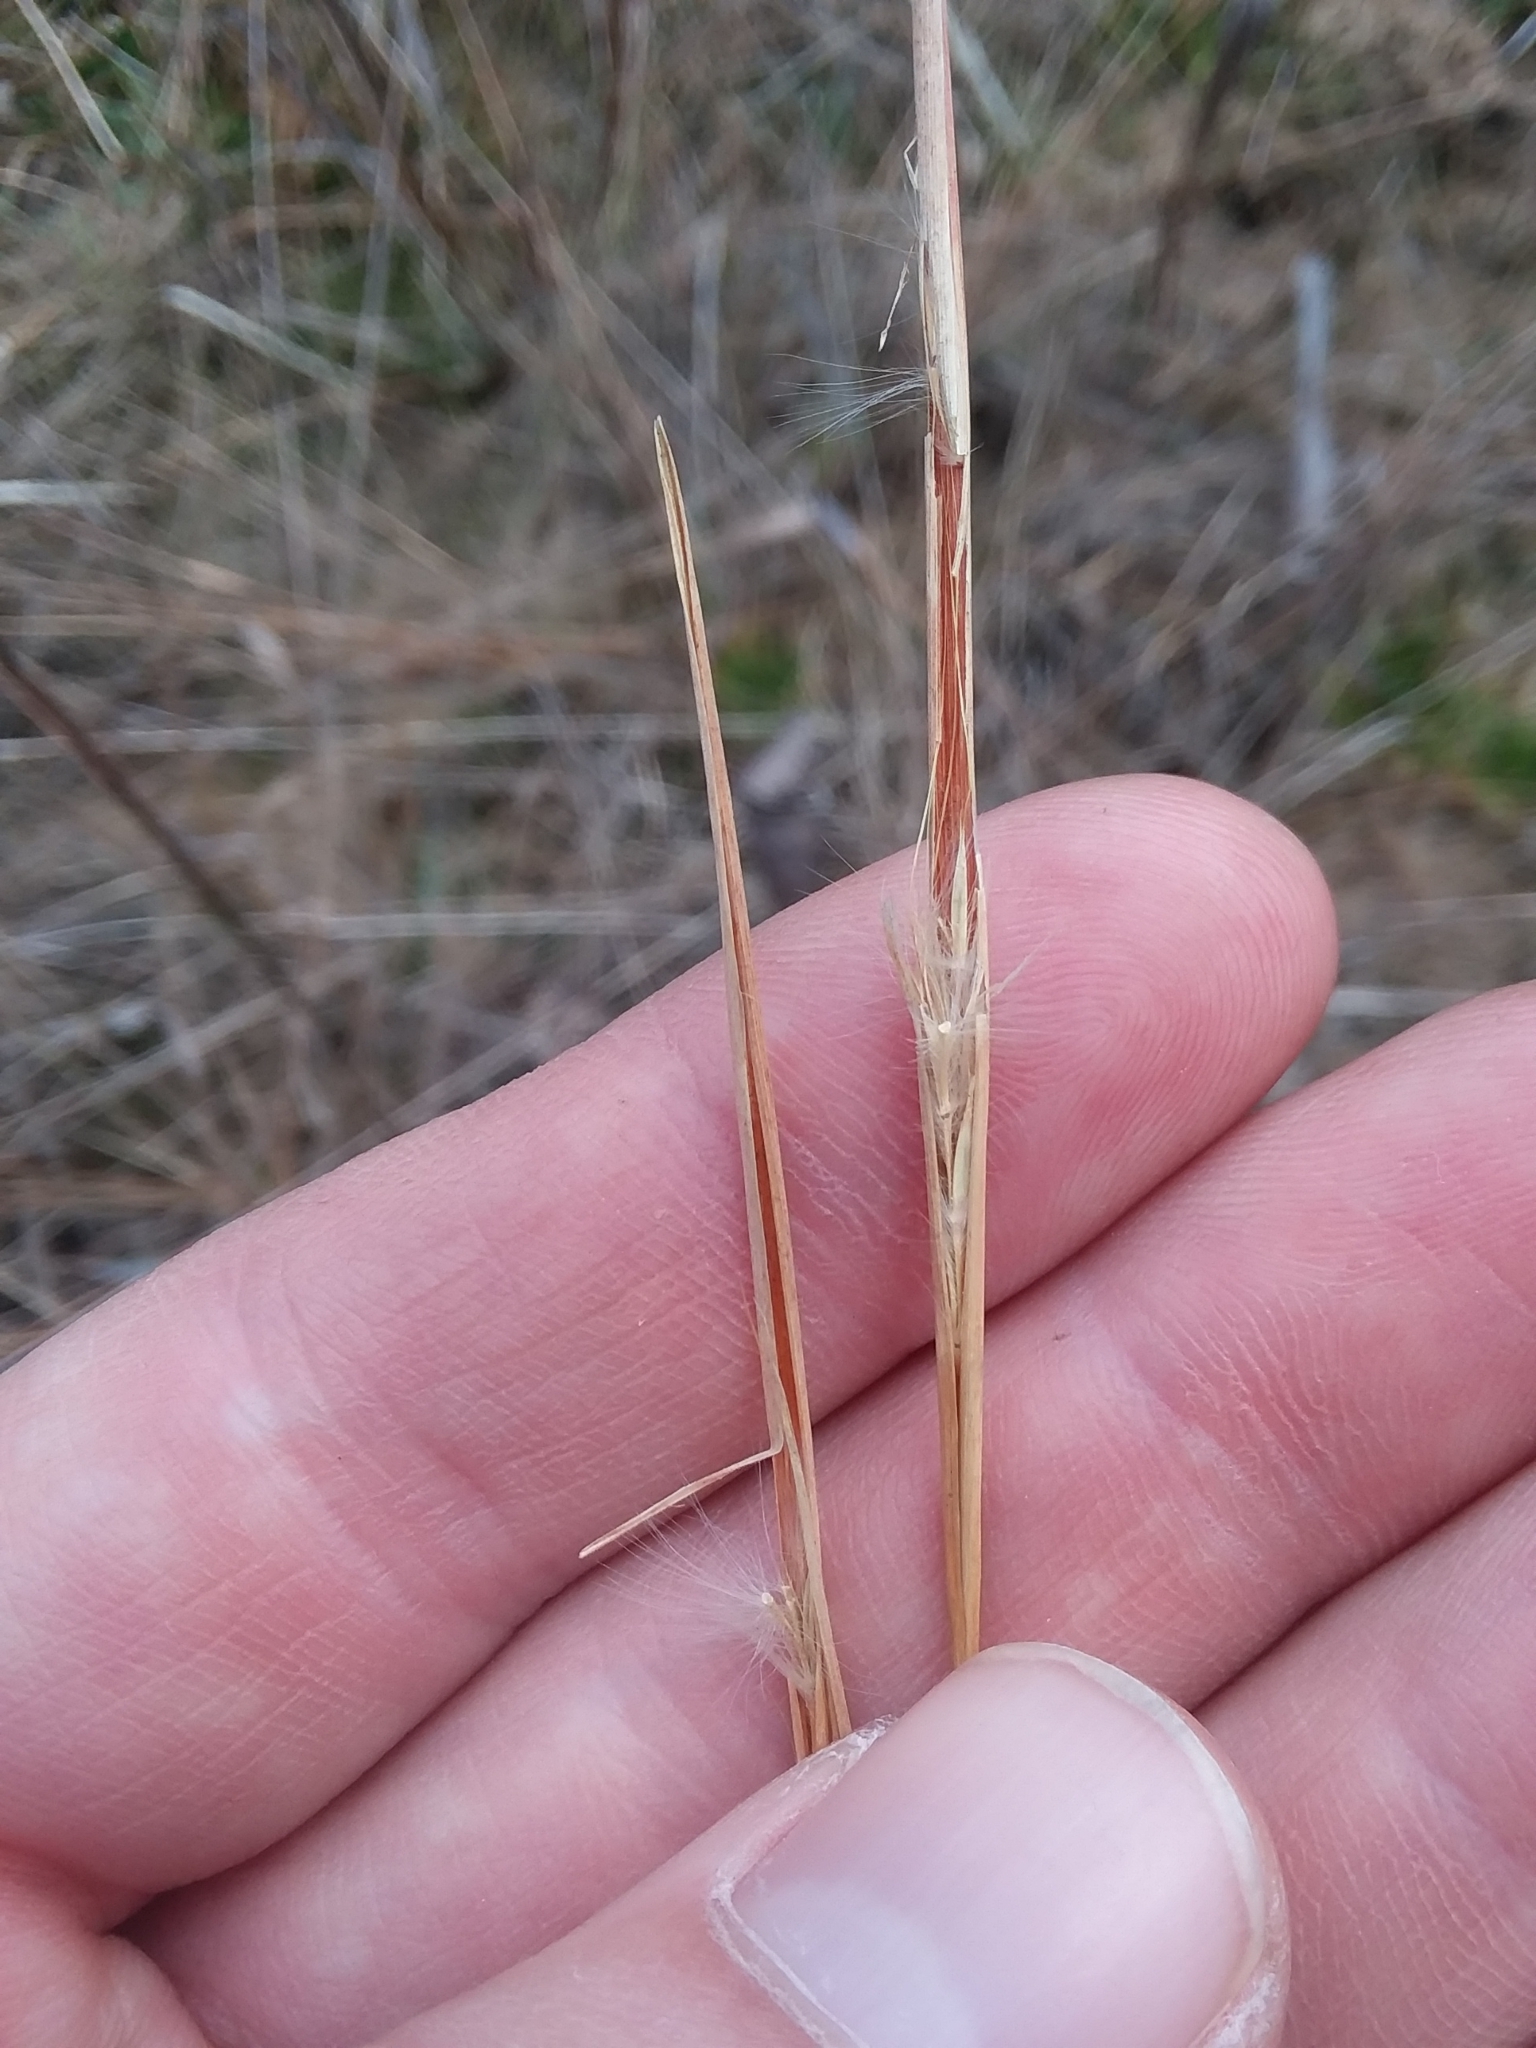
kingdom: Plantae
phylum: Tracheophyta
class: Liliopsida
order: Poales
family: Poaceae
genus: Andropogon
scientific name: Andropogon perangustatus
